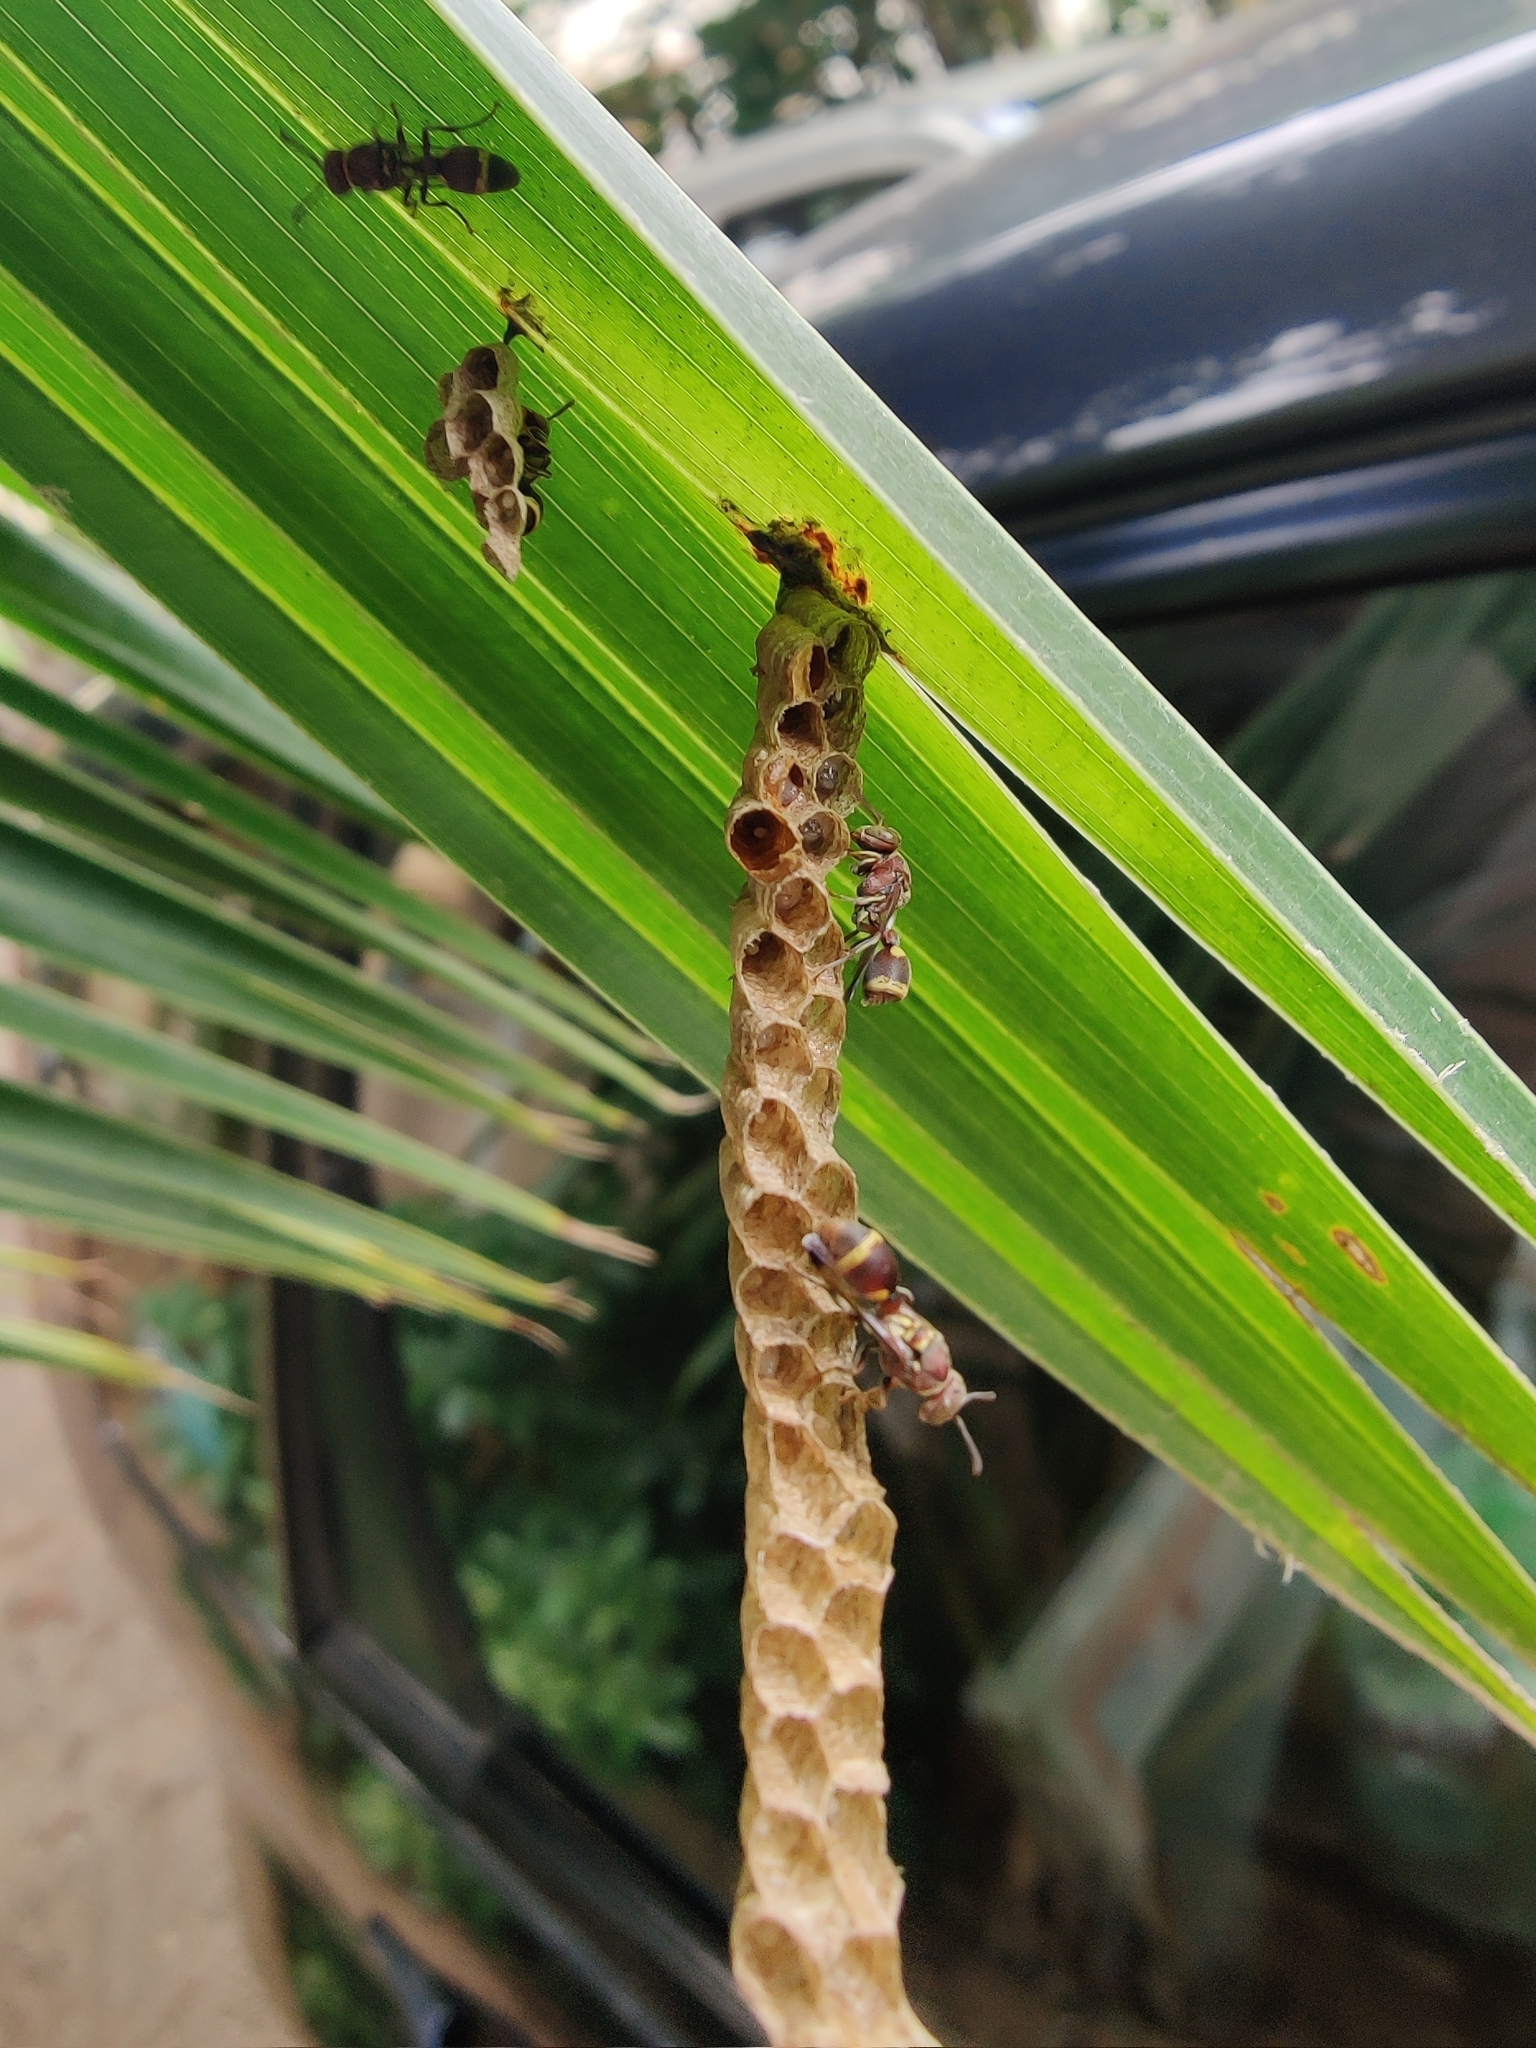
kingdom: Animalia
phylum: Arthropoda
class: Insecta
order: Hymenoptera
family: Vespidae
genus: Ropalidia
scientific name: Ropalidia jacobsoni
